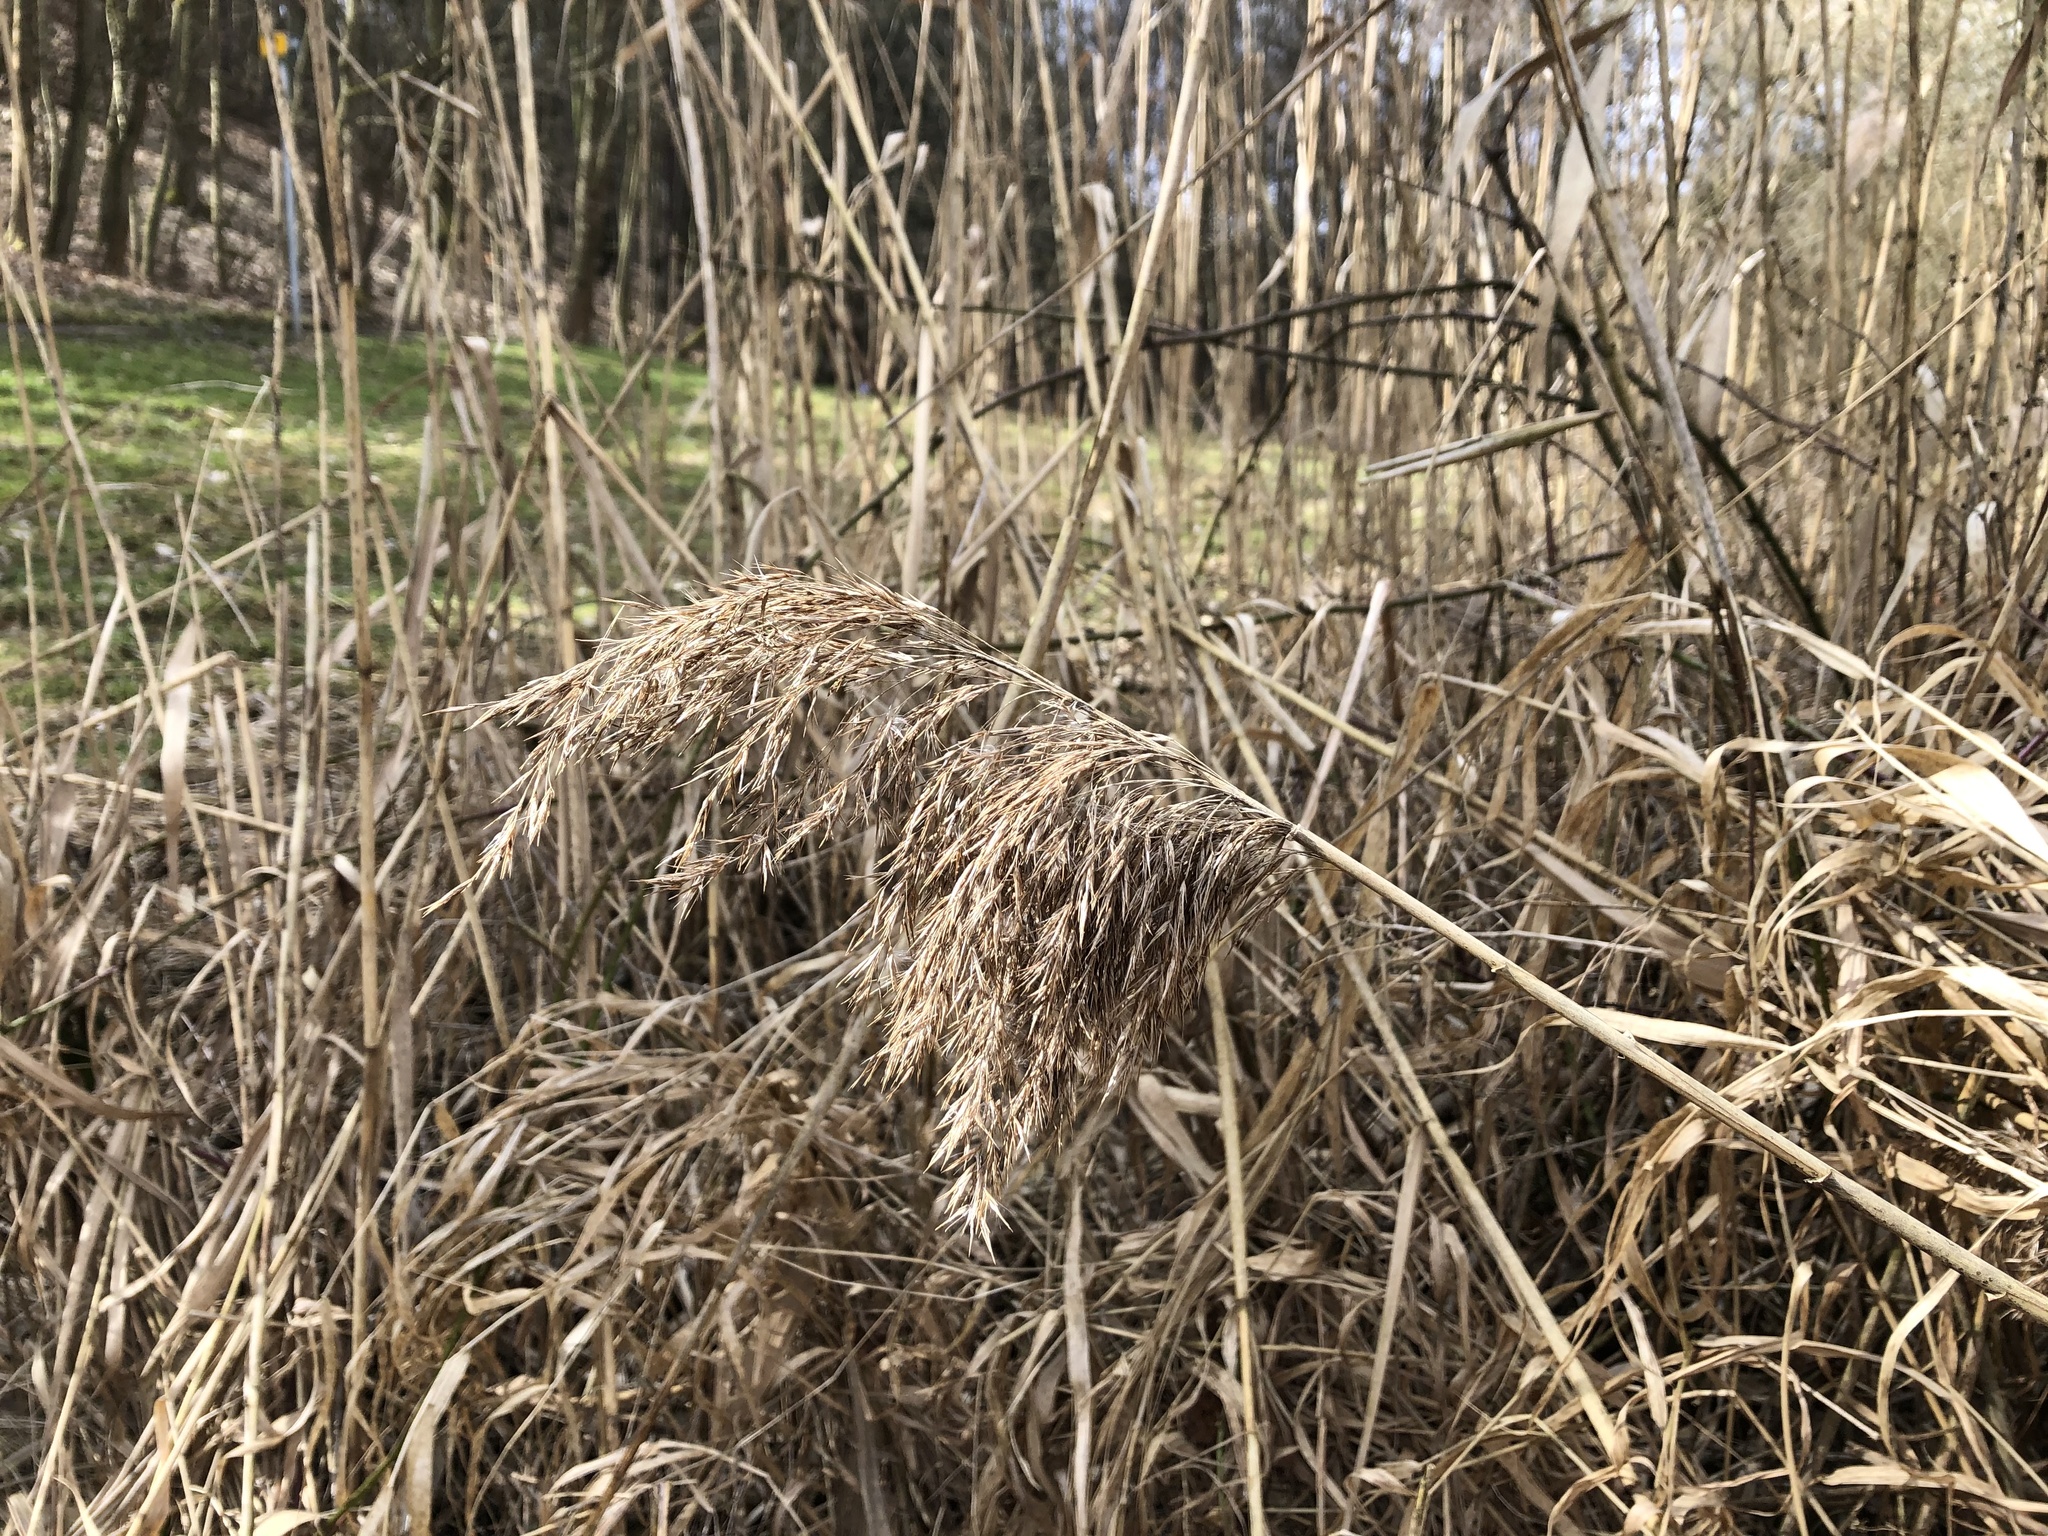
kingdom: Plantae
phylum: Tracheophyta
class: Liliopsida
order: Poales
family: Poaceae
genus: Phragmites
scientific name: Phragmites australis
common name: Common reed
